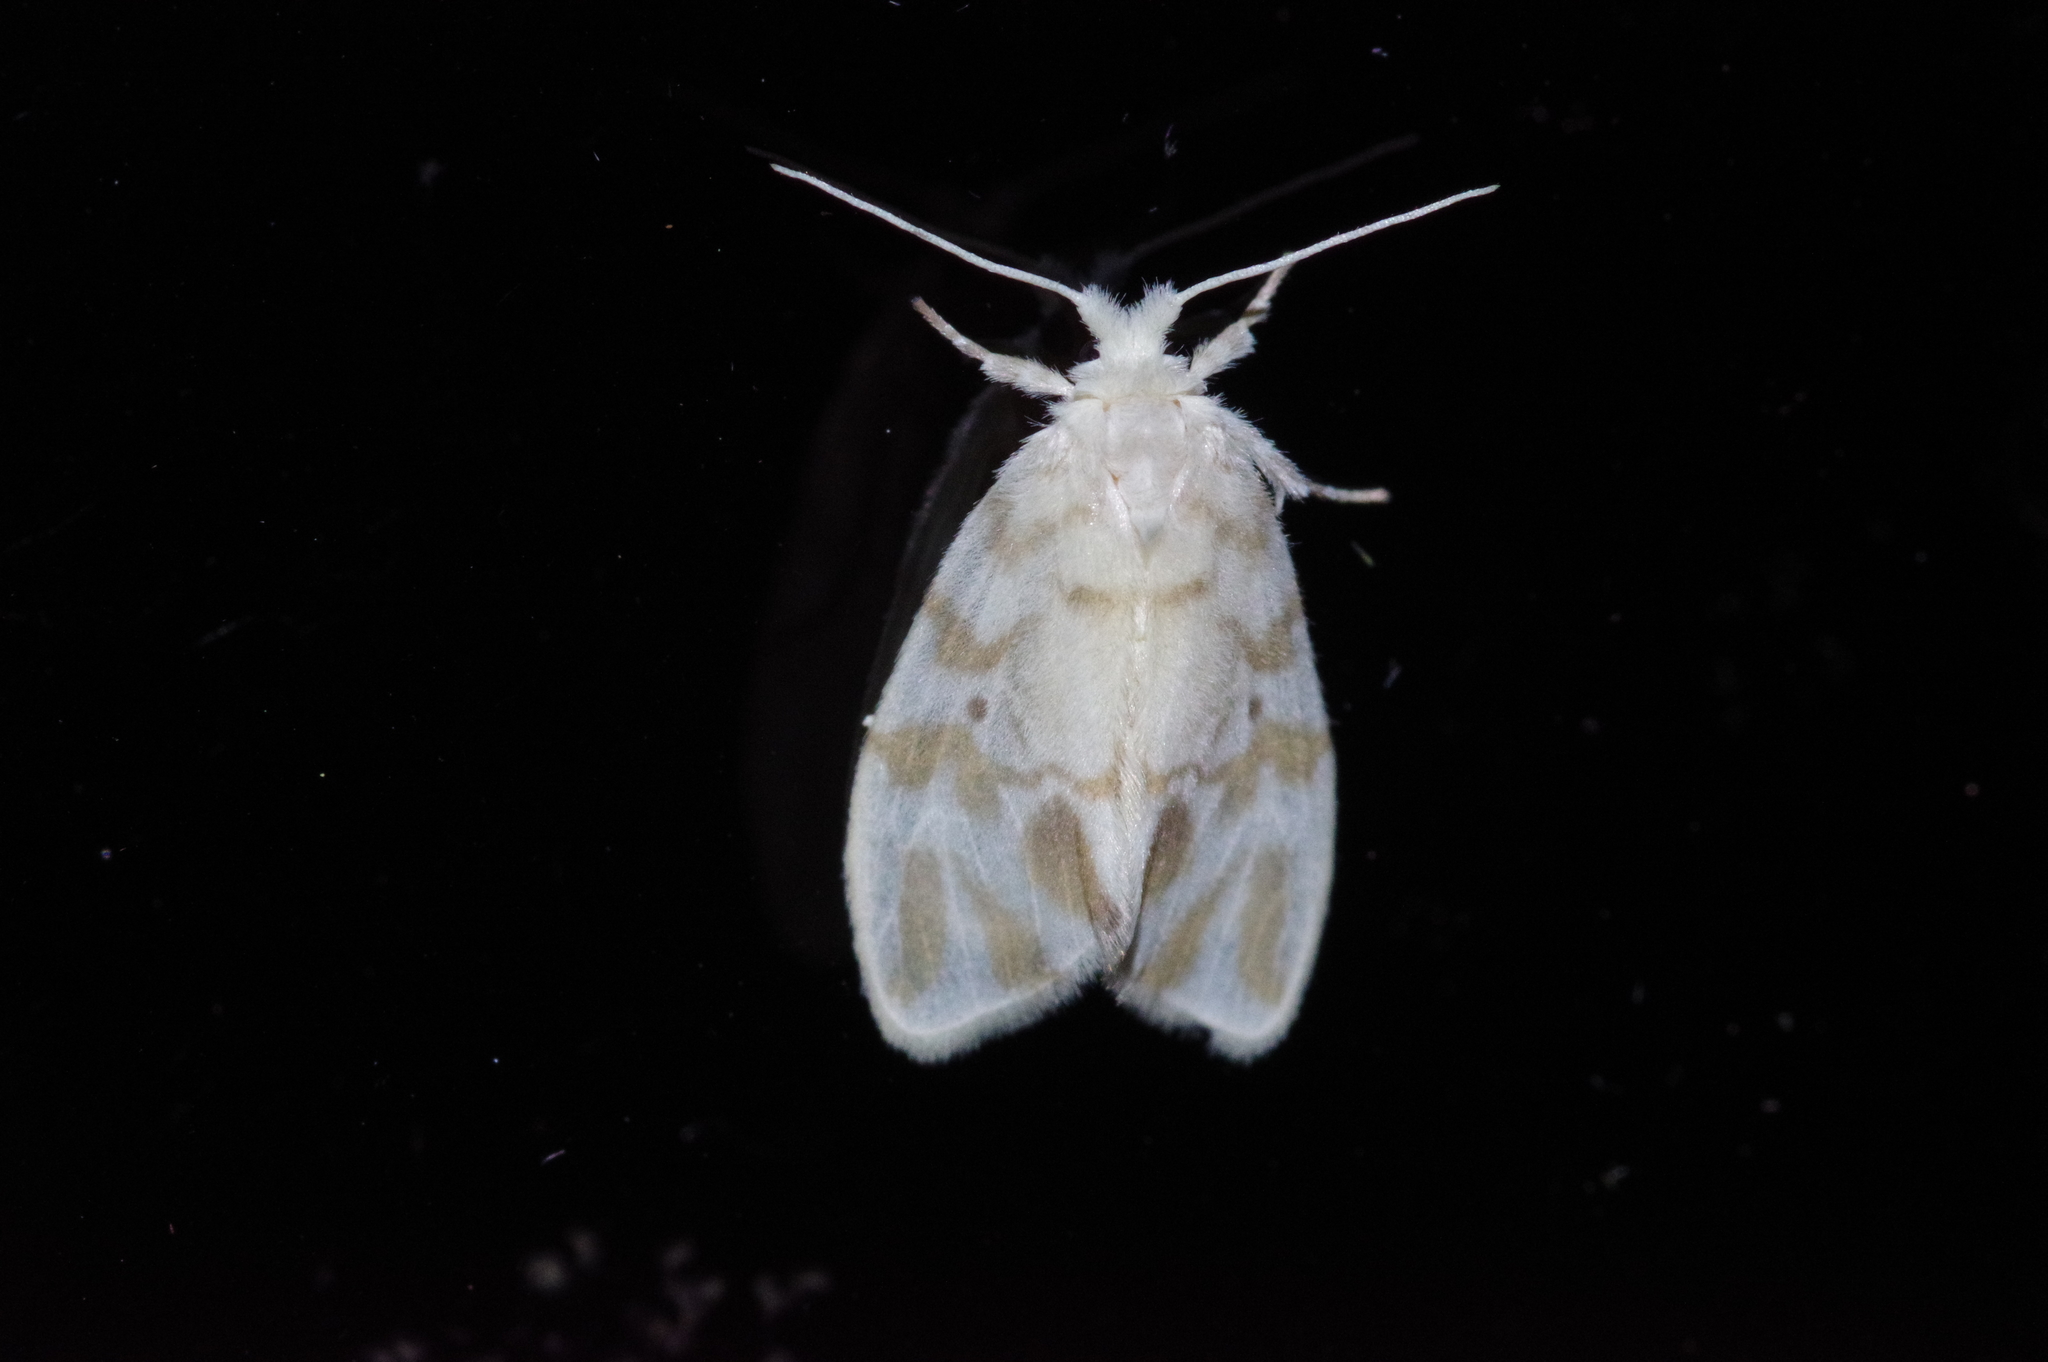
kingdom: Animalia
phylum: Arthropoda
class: Insecta
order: Lepidoptera
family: Erebidae
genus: Nudaria
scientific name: Nudaria ranruna
